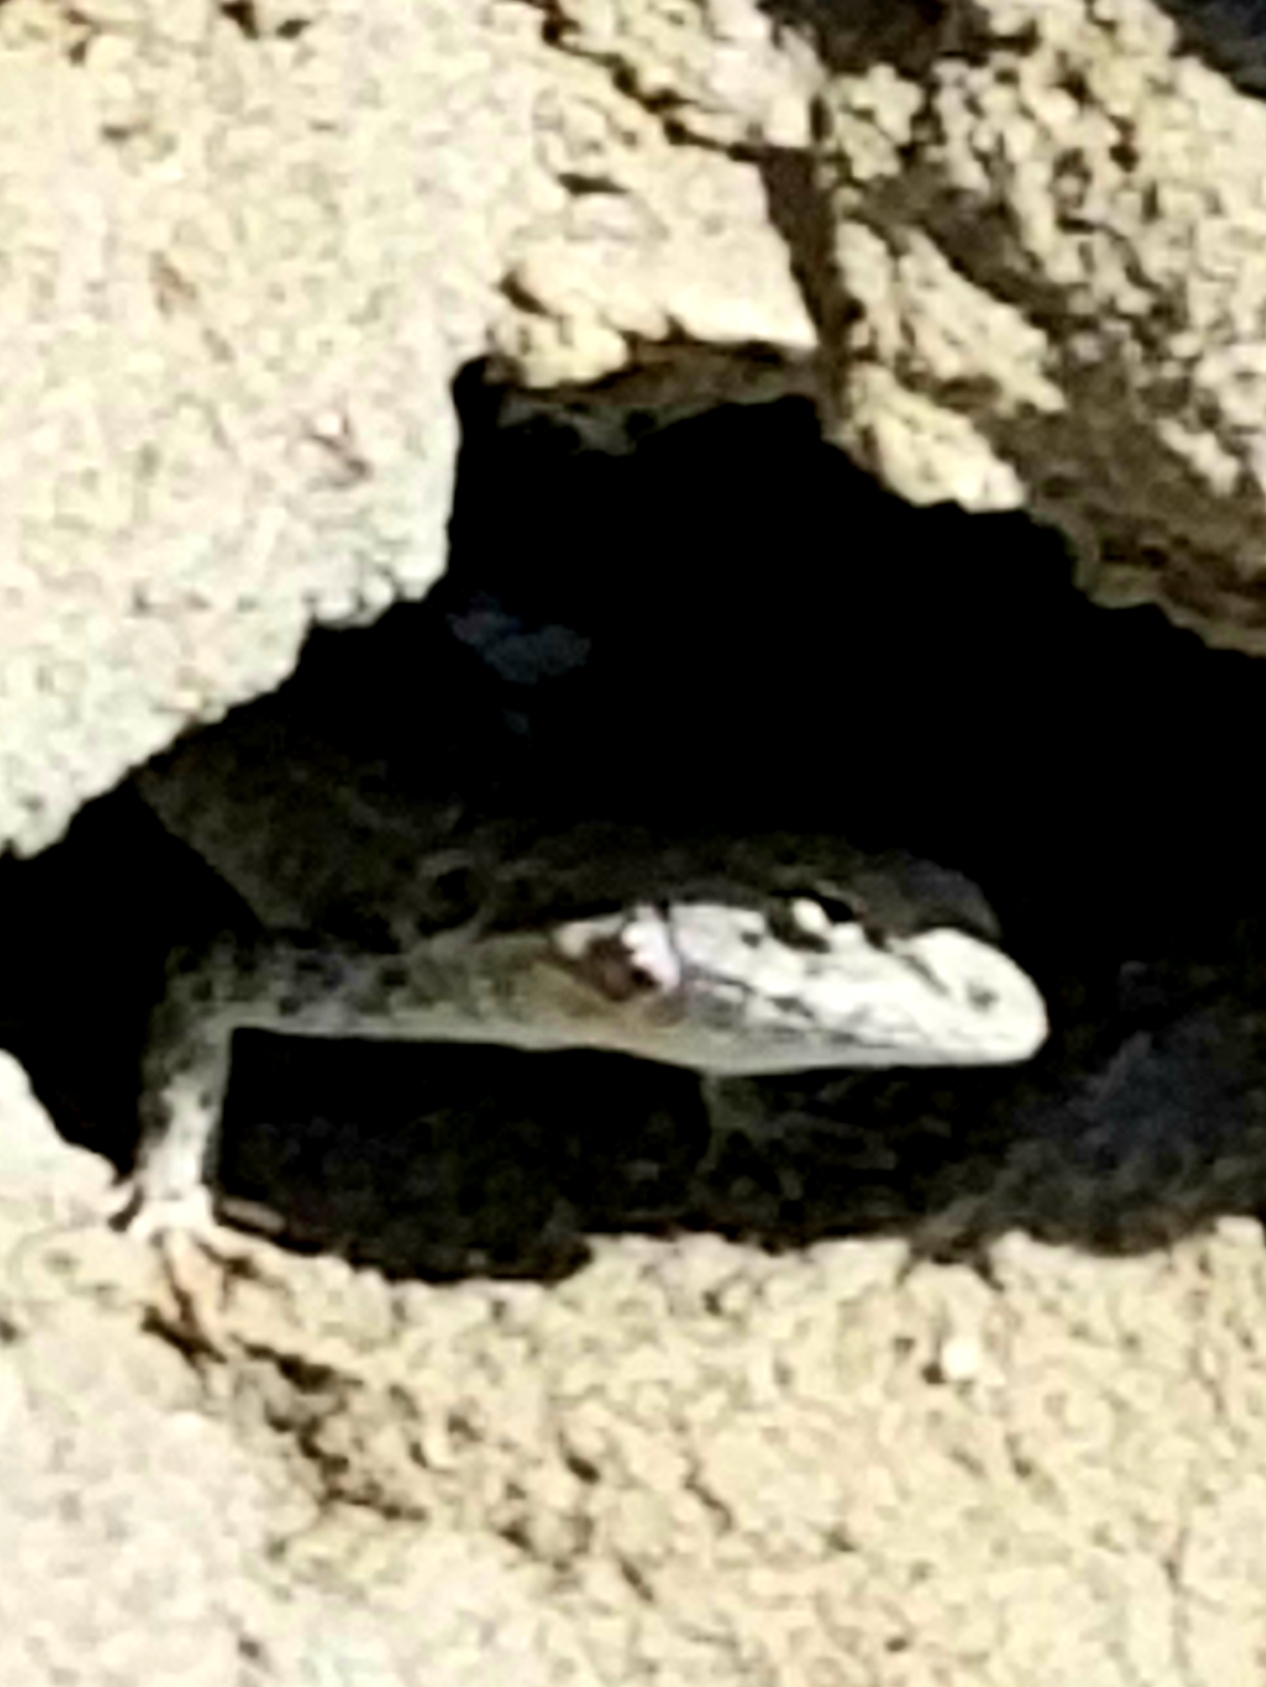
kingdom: Animalia
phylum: Chordata
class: Squamata
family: Phrynosomatidae
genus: Uta
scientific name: Uta stansburiana
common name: Side-blotched lizard
